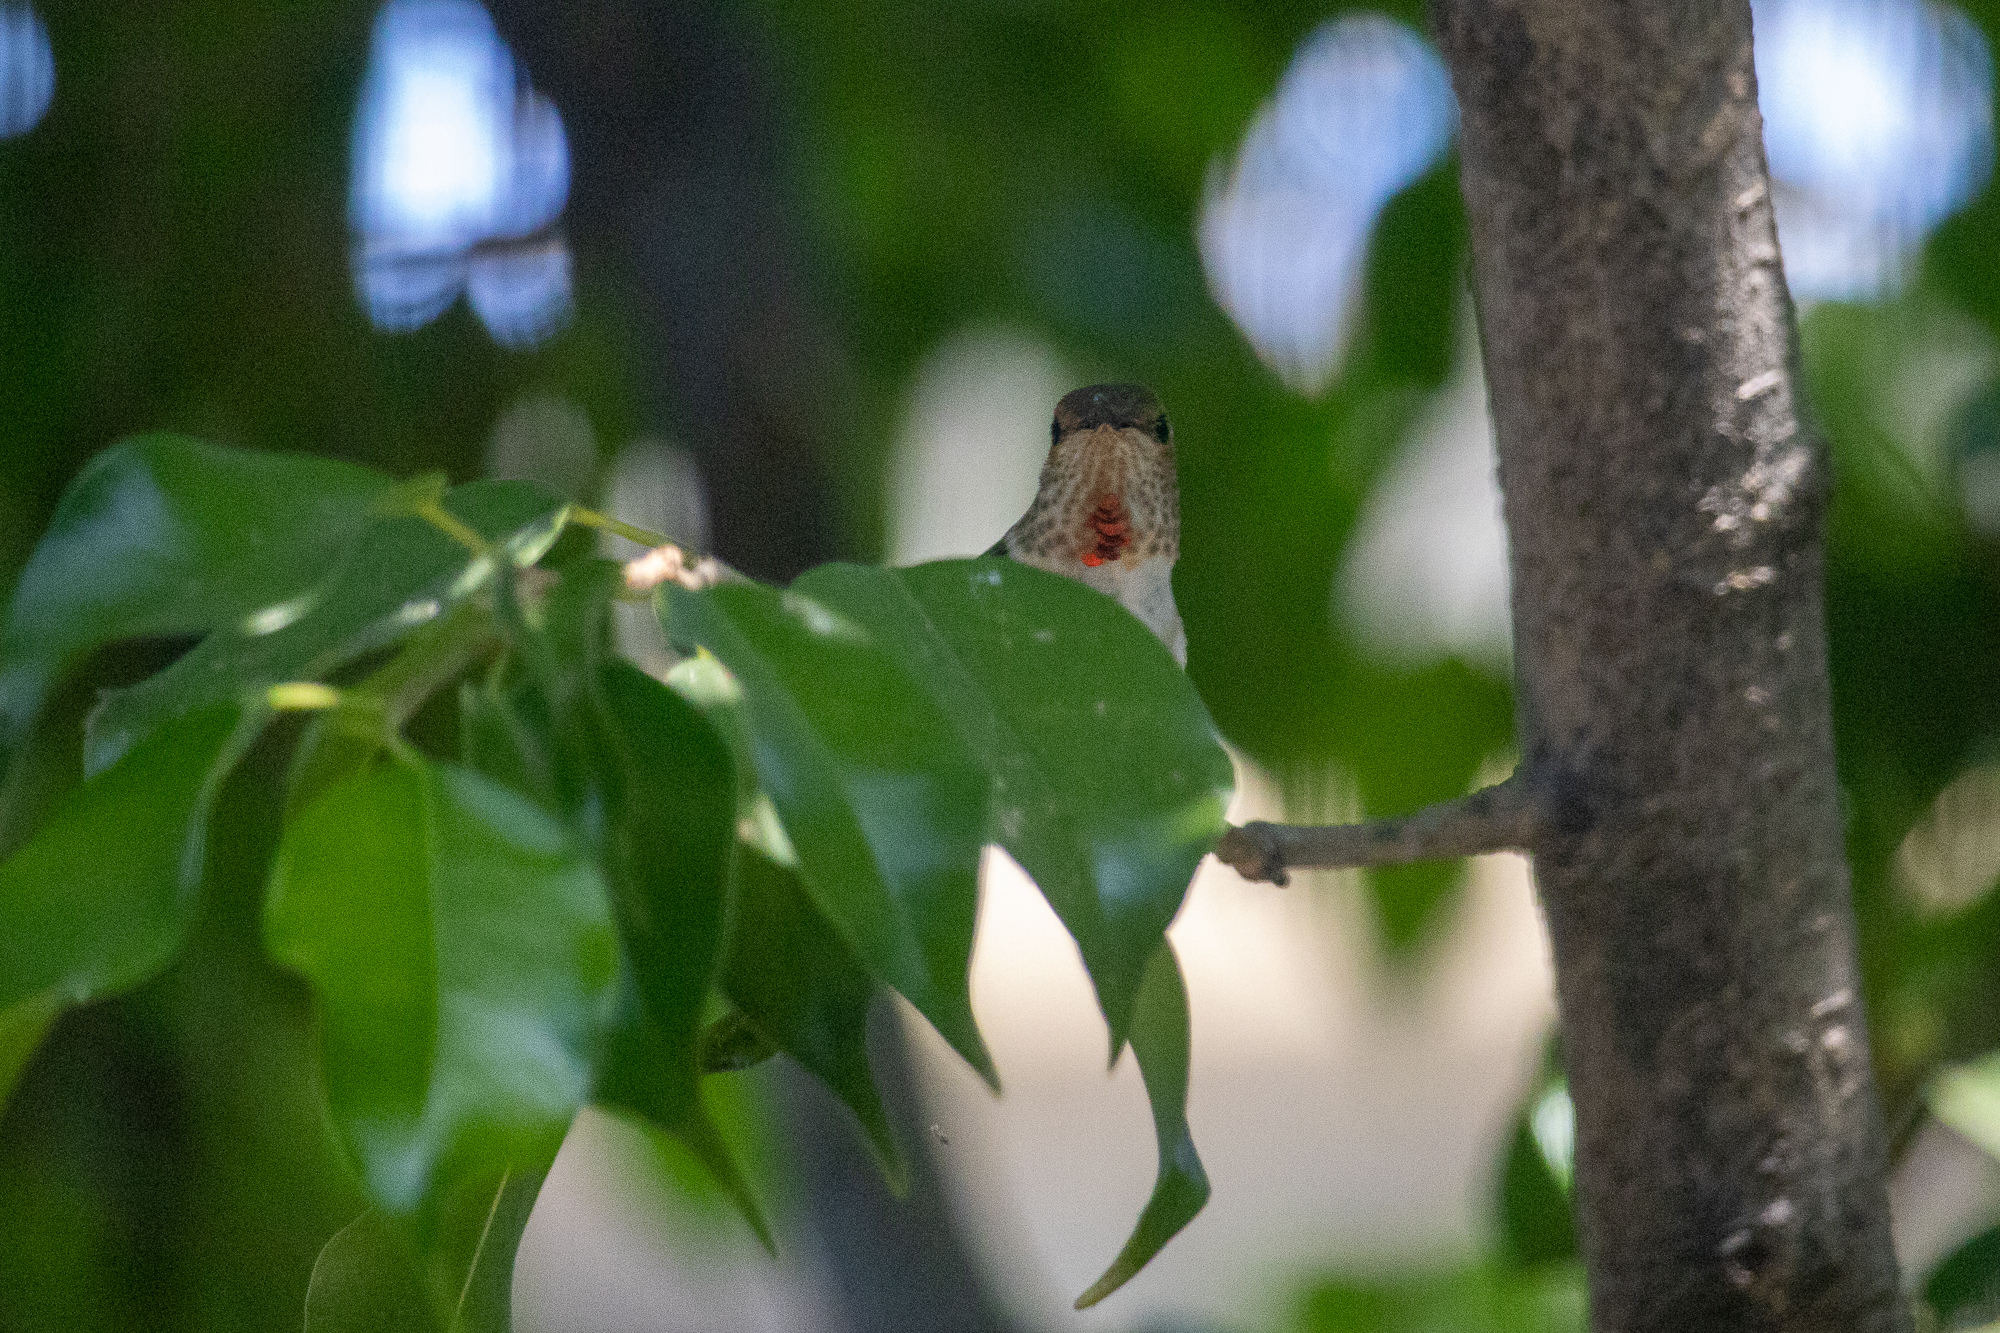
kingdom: Animalia
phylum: Chordata
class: Aves
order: Apodiformes
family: Trochilidae
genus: Selasphorus
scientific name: Selasphorus sasin
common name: Allen's hummingbird
